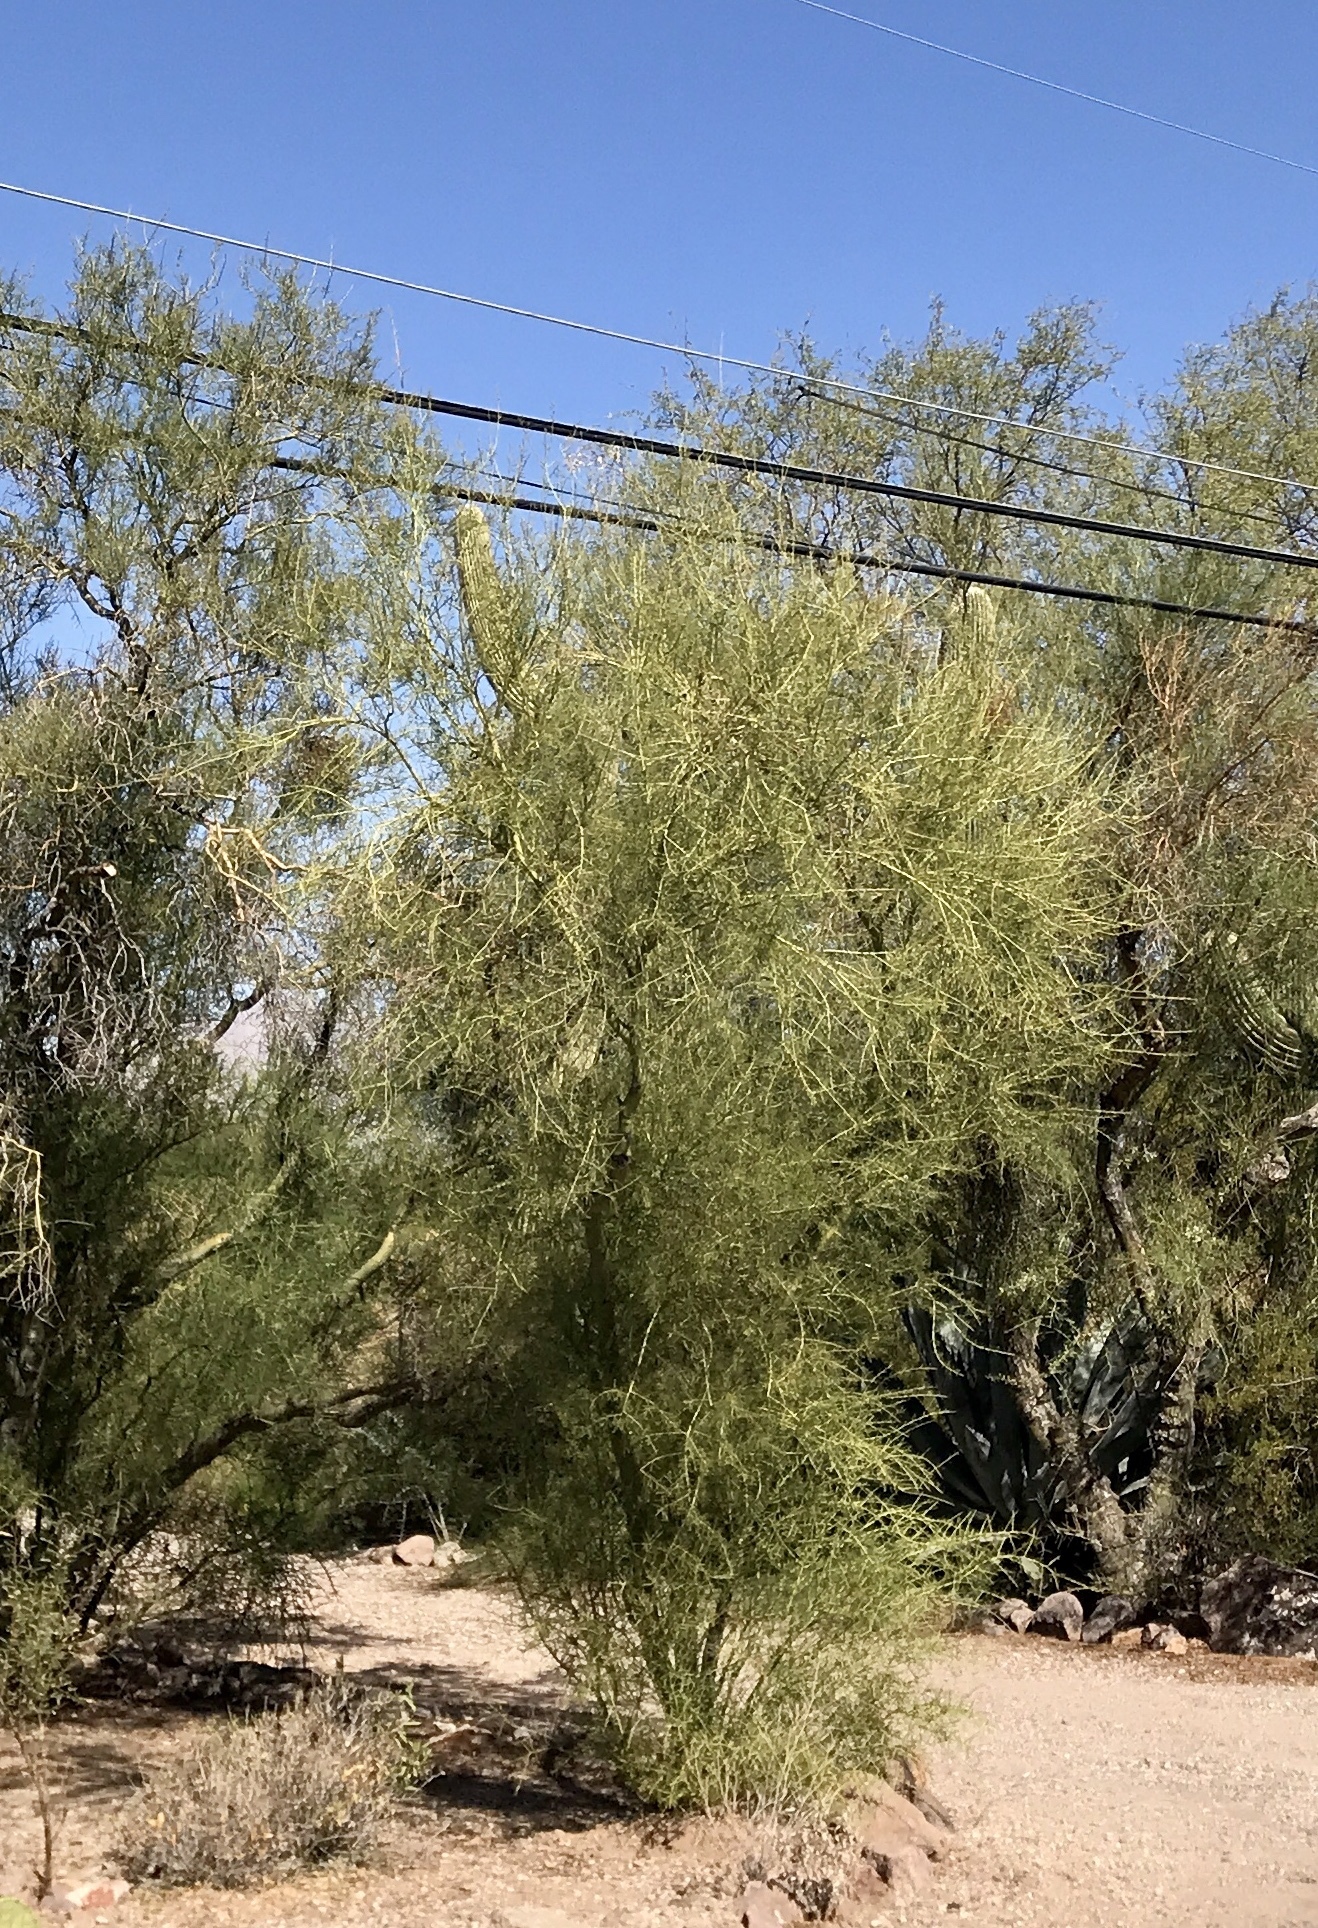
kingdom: Plantae
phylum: Tracheophyta
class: Magnoliopsida
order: Fabales
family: Fabaceae
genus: Parkinsonia
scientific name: Parkinsonia microphylla
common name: Yellow paloverde
